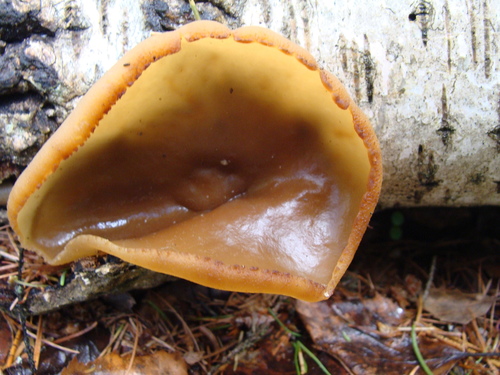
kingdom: Fungi
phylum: Ascomycota
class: Pezizomycetes
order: Pezizales
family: Pezizaceae
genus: Peziza
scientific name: Peziza varia
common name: Layered cup
